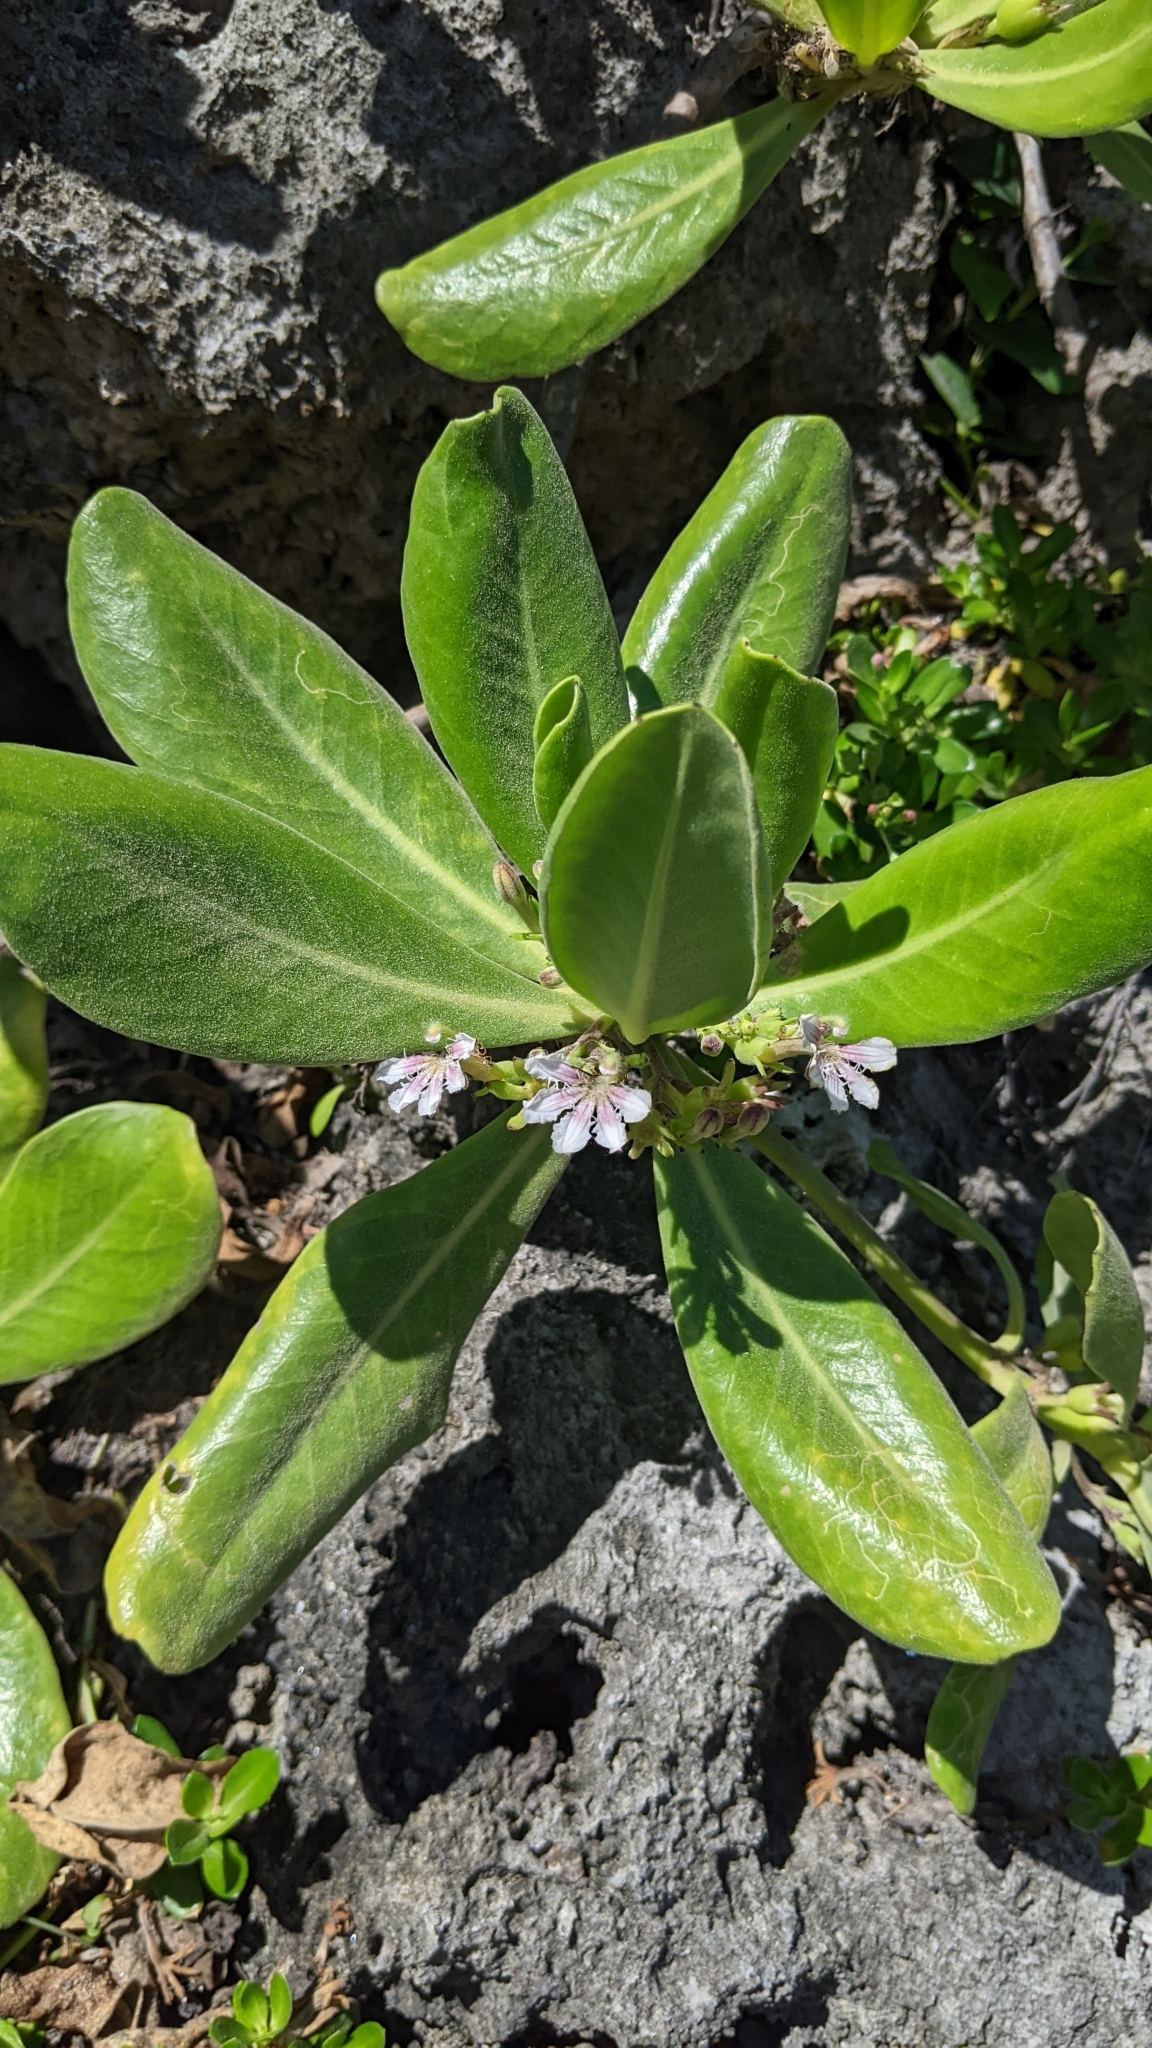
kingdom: Plantae
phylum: Tracheophyta
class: Magnoliopsida
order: Asterales
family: Goodeniaceae
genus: Scaevola
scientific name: Scaevola taccada
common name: Sea lettucetree
